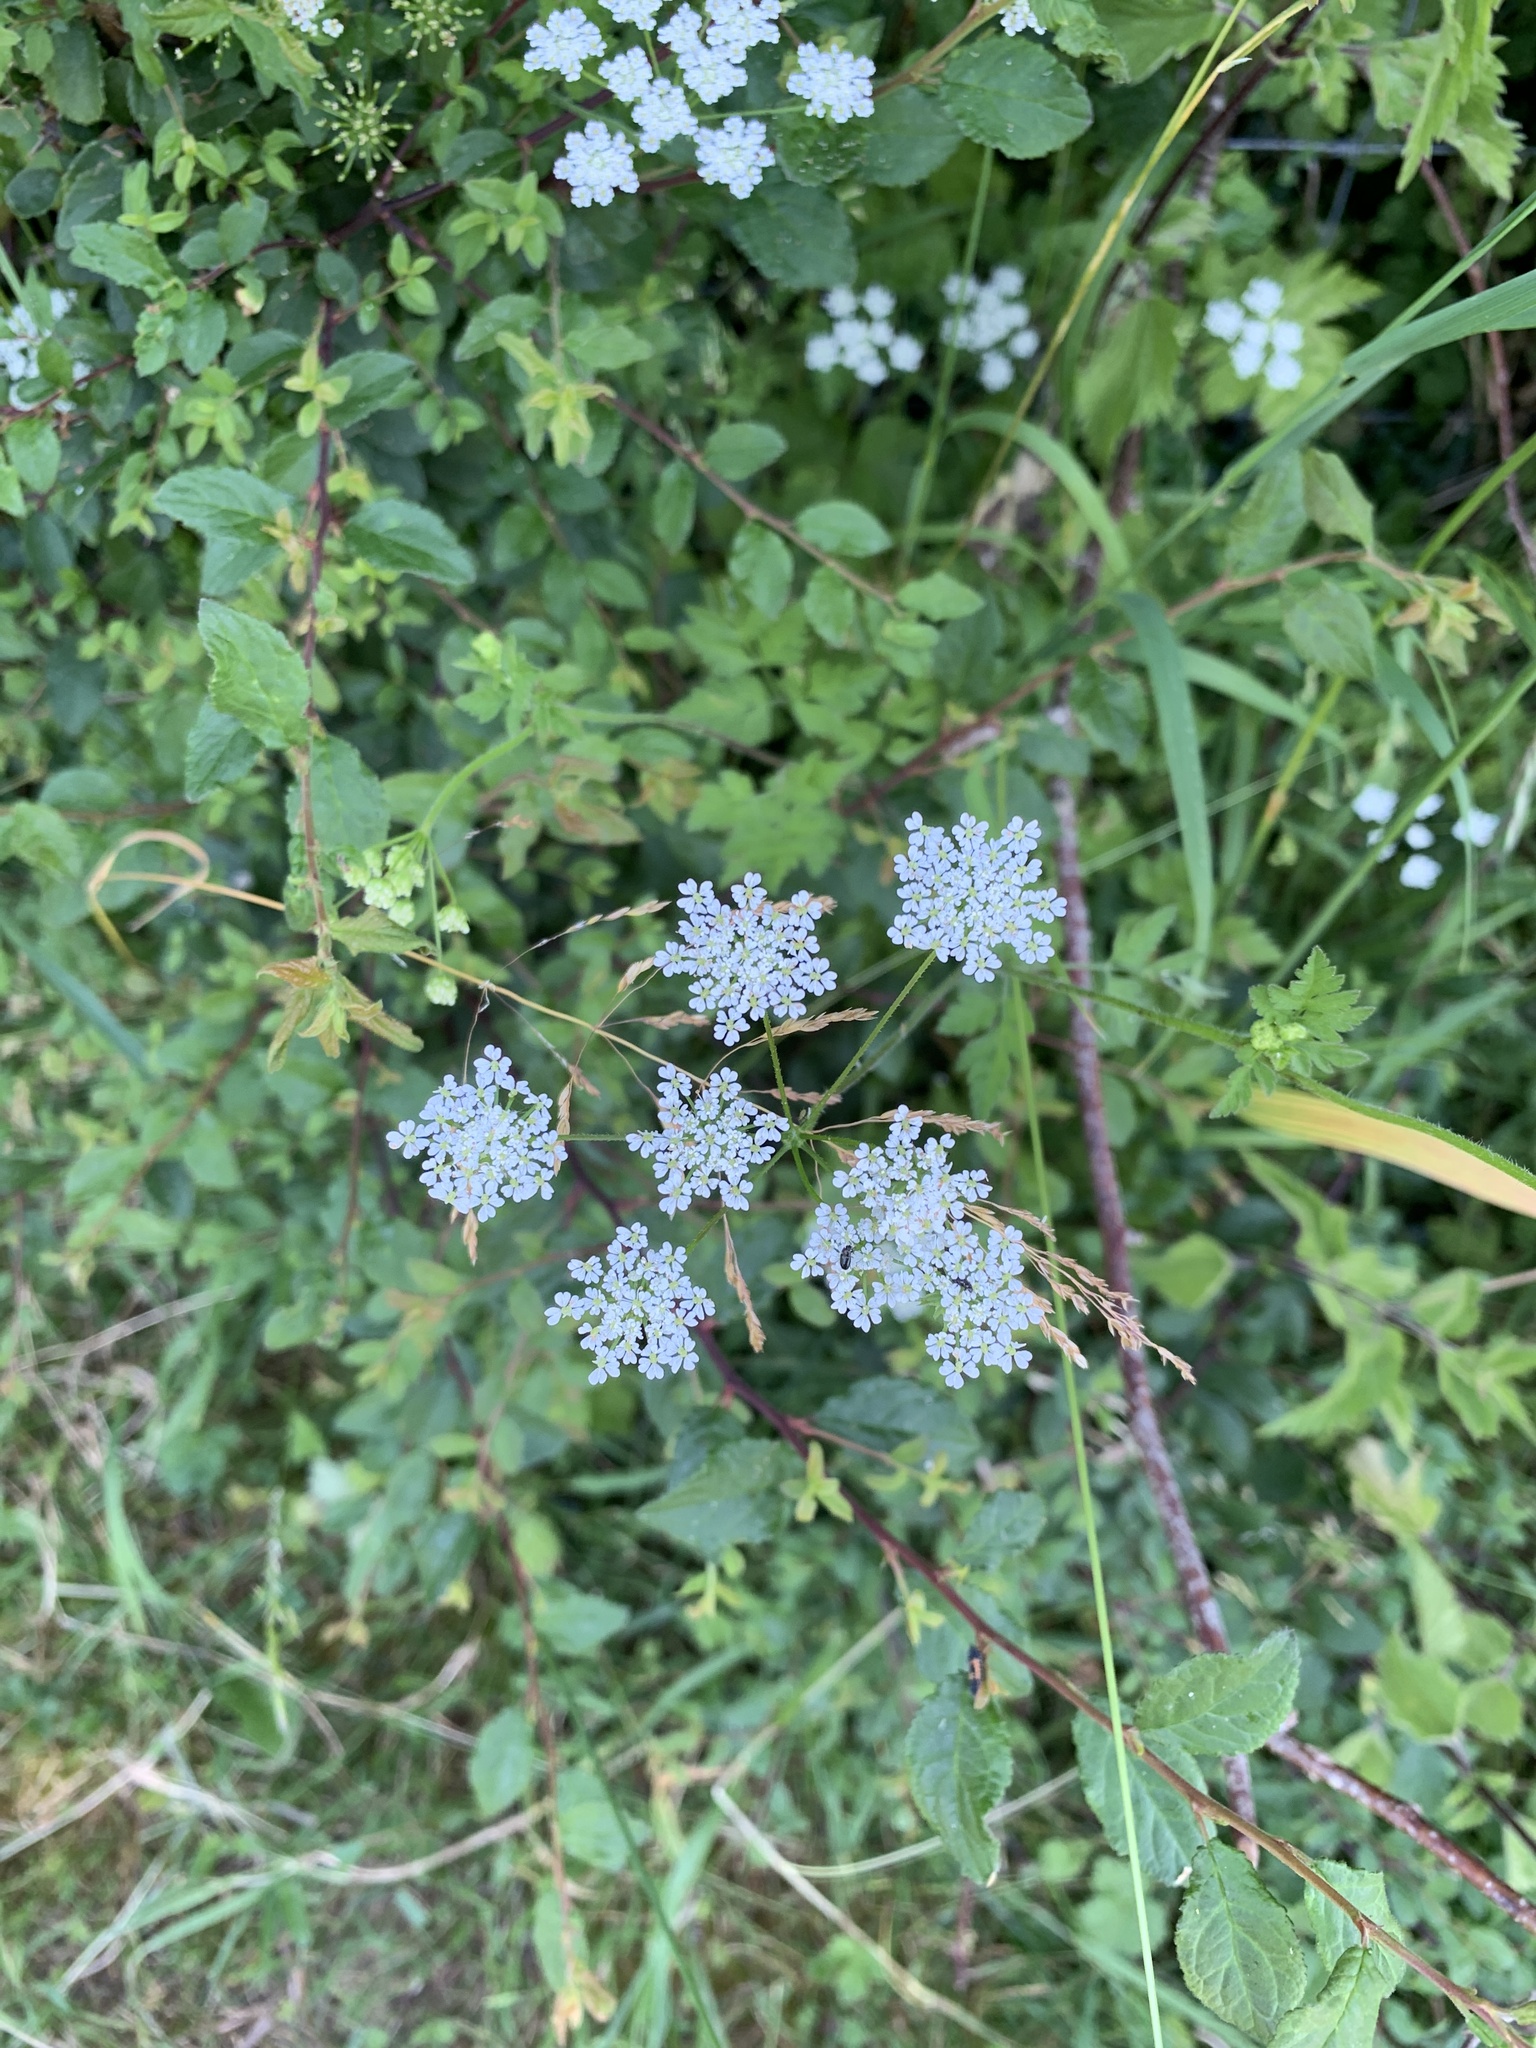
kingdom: Plantae
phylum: Tracheophyta
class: Magnoliopsida
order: Apiales
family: Apiaceae
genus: Chaerophyllum
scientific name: Chaerophyllum temulum
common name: Rough chervil
